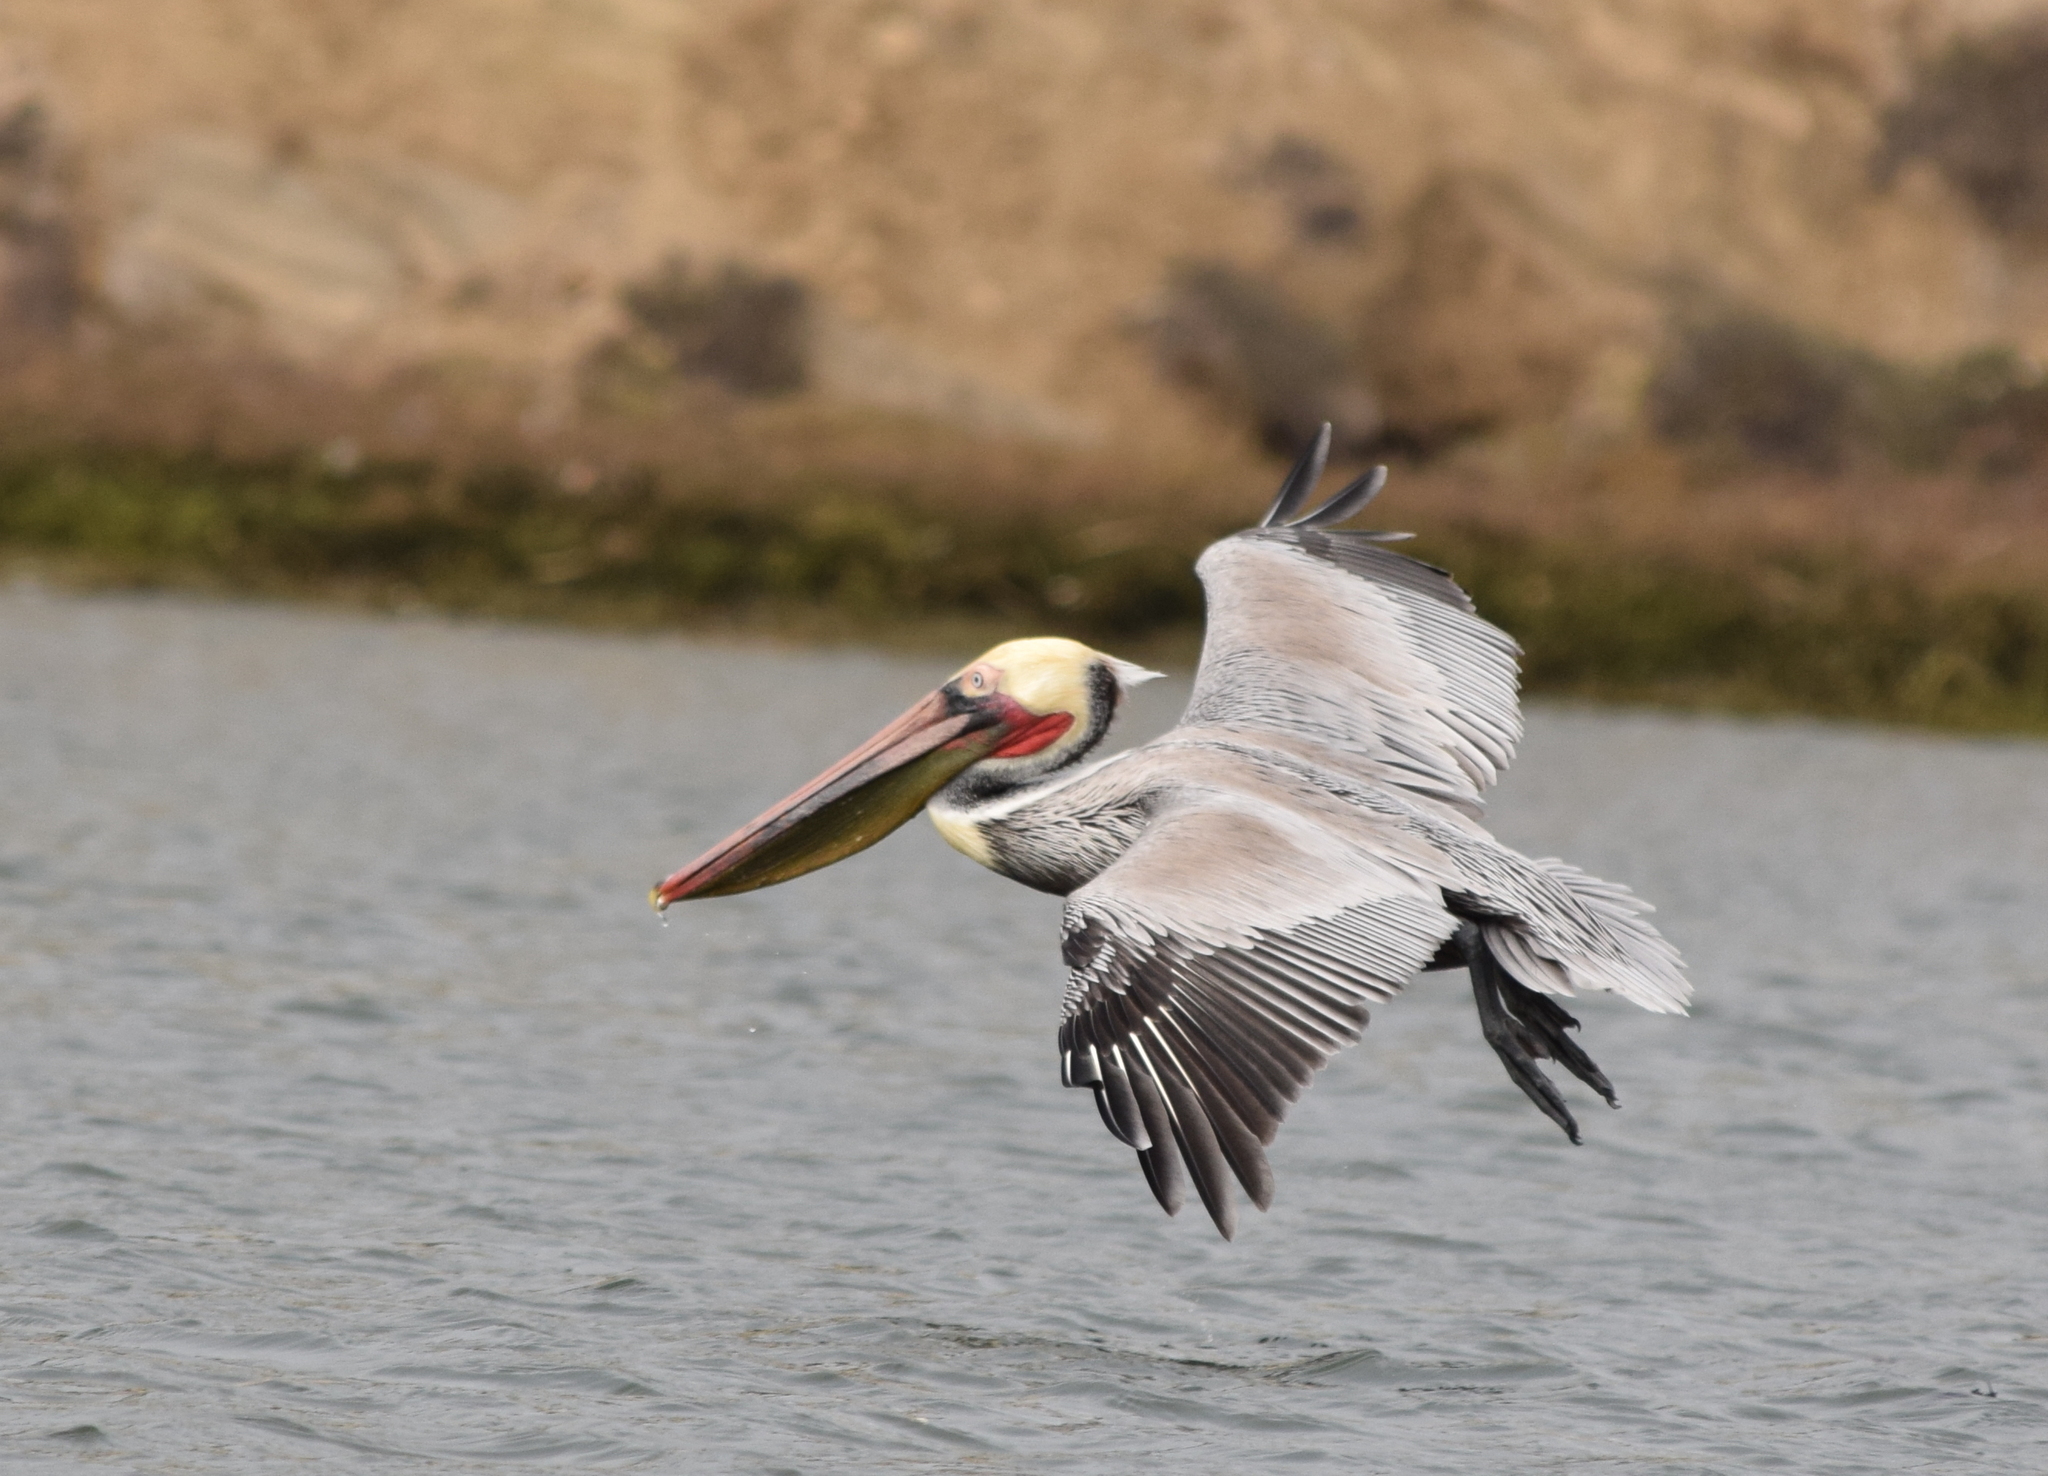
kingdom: Animalia
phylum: Chordata
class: Aves
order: Pelecaniformes
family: Pelecanidae
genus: Pelecanus
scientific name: Pelecanus occidentalis
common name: Brown pelican
